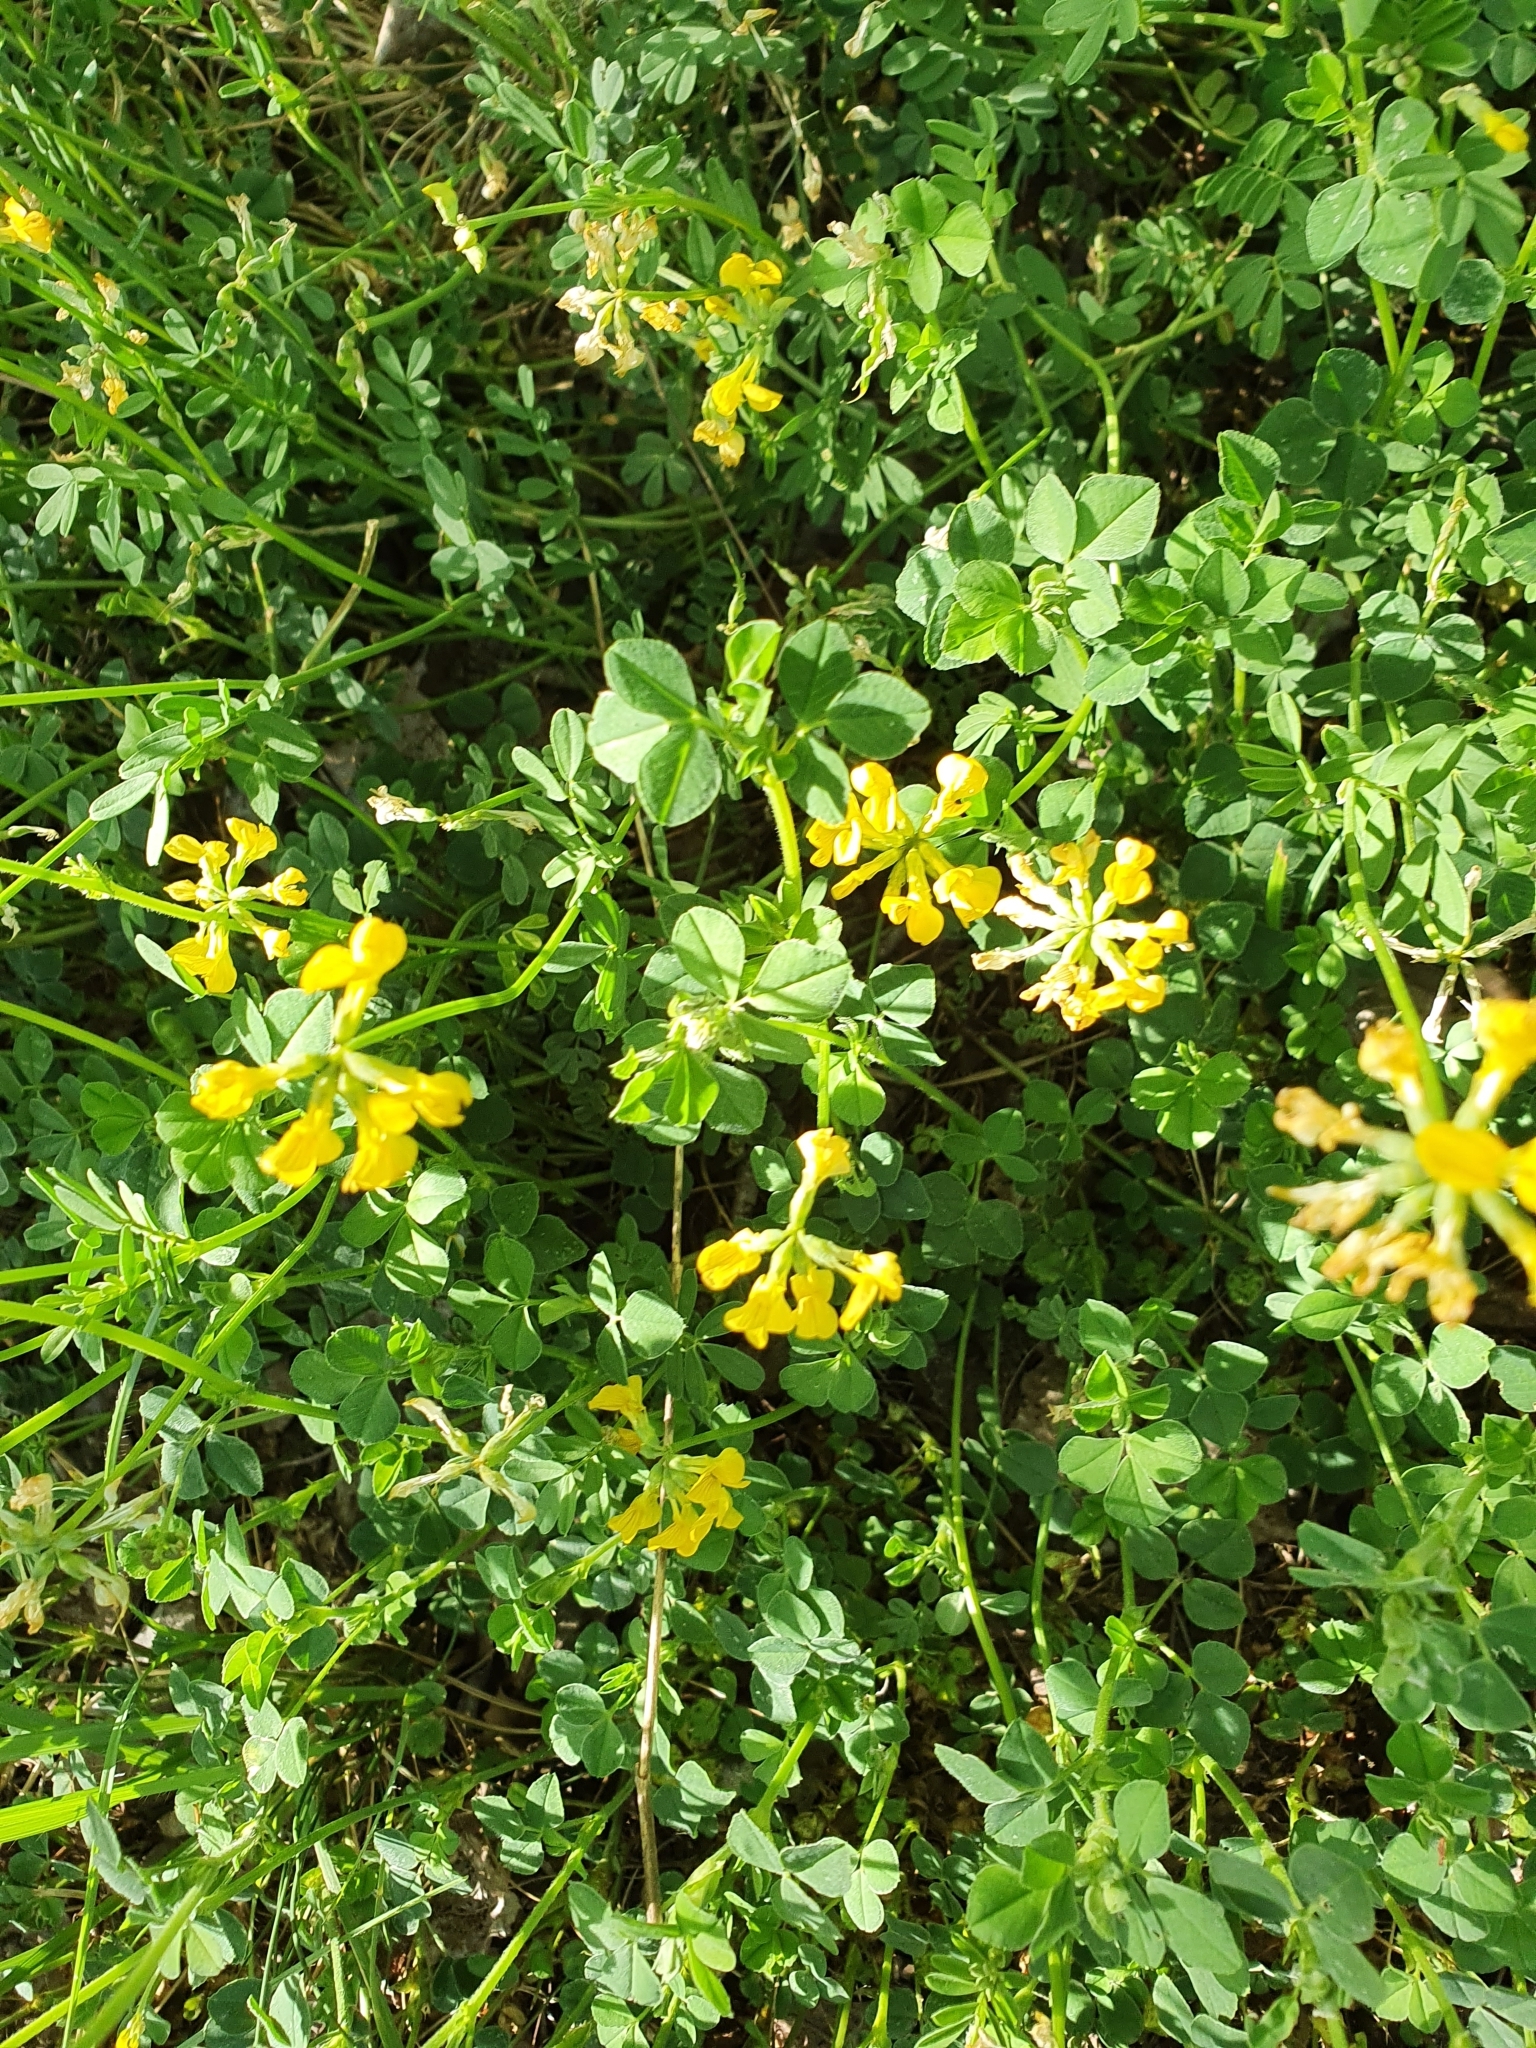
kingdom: Plantae
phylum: Tracheophyta
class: Magnoliopsida
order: Fabales
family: Fabaceae
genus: Hippocrepis
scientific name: Hippocrepis comosa
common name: Horseshoe vetch
